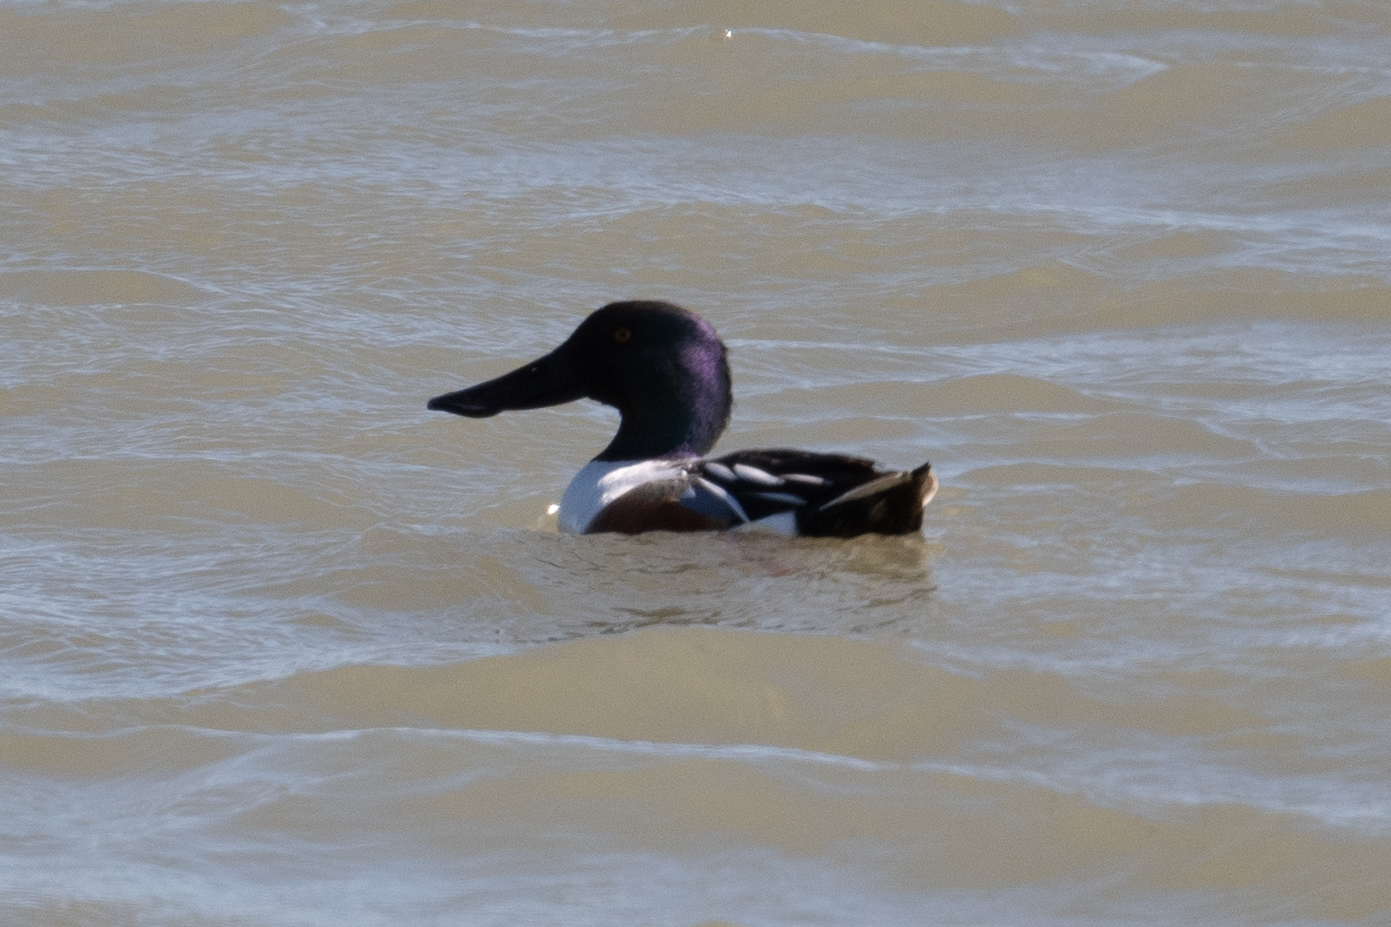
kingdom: Animalia
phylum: Chordata
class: Aves
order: Anseriformes
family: Anatidae
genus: Spatula
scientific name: Spatula clypeata
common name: Northern shoveler
